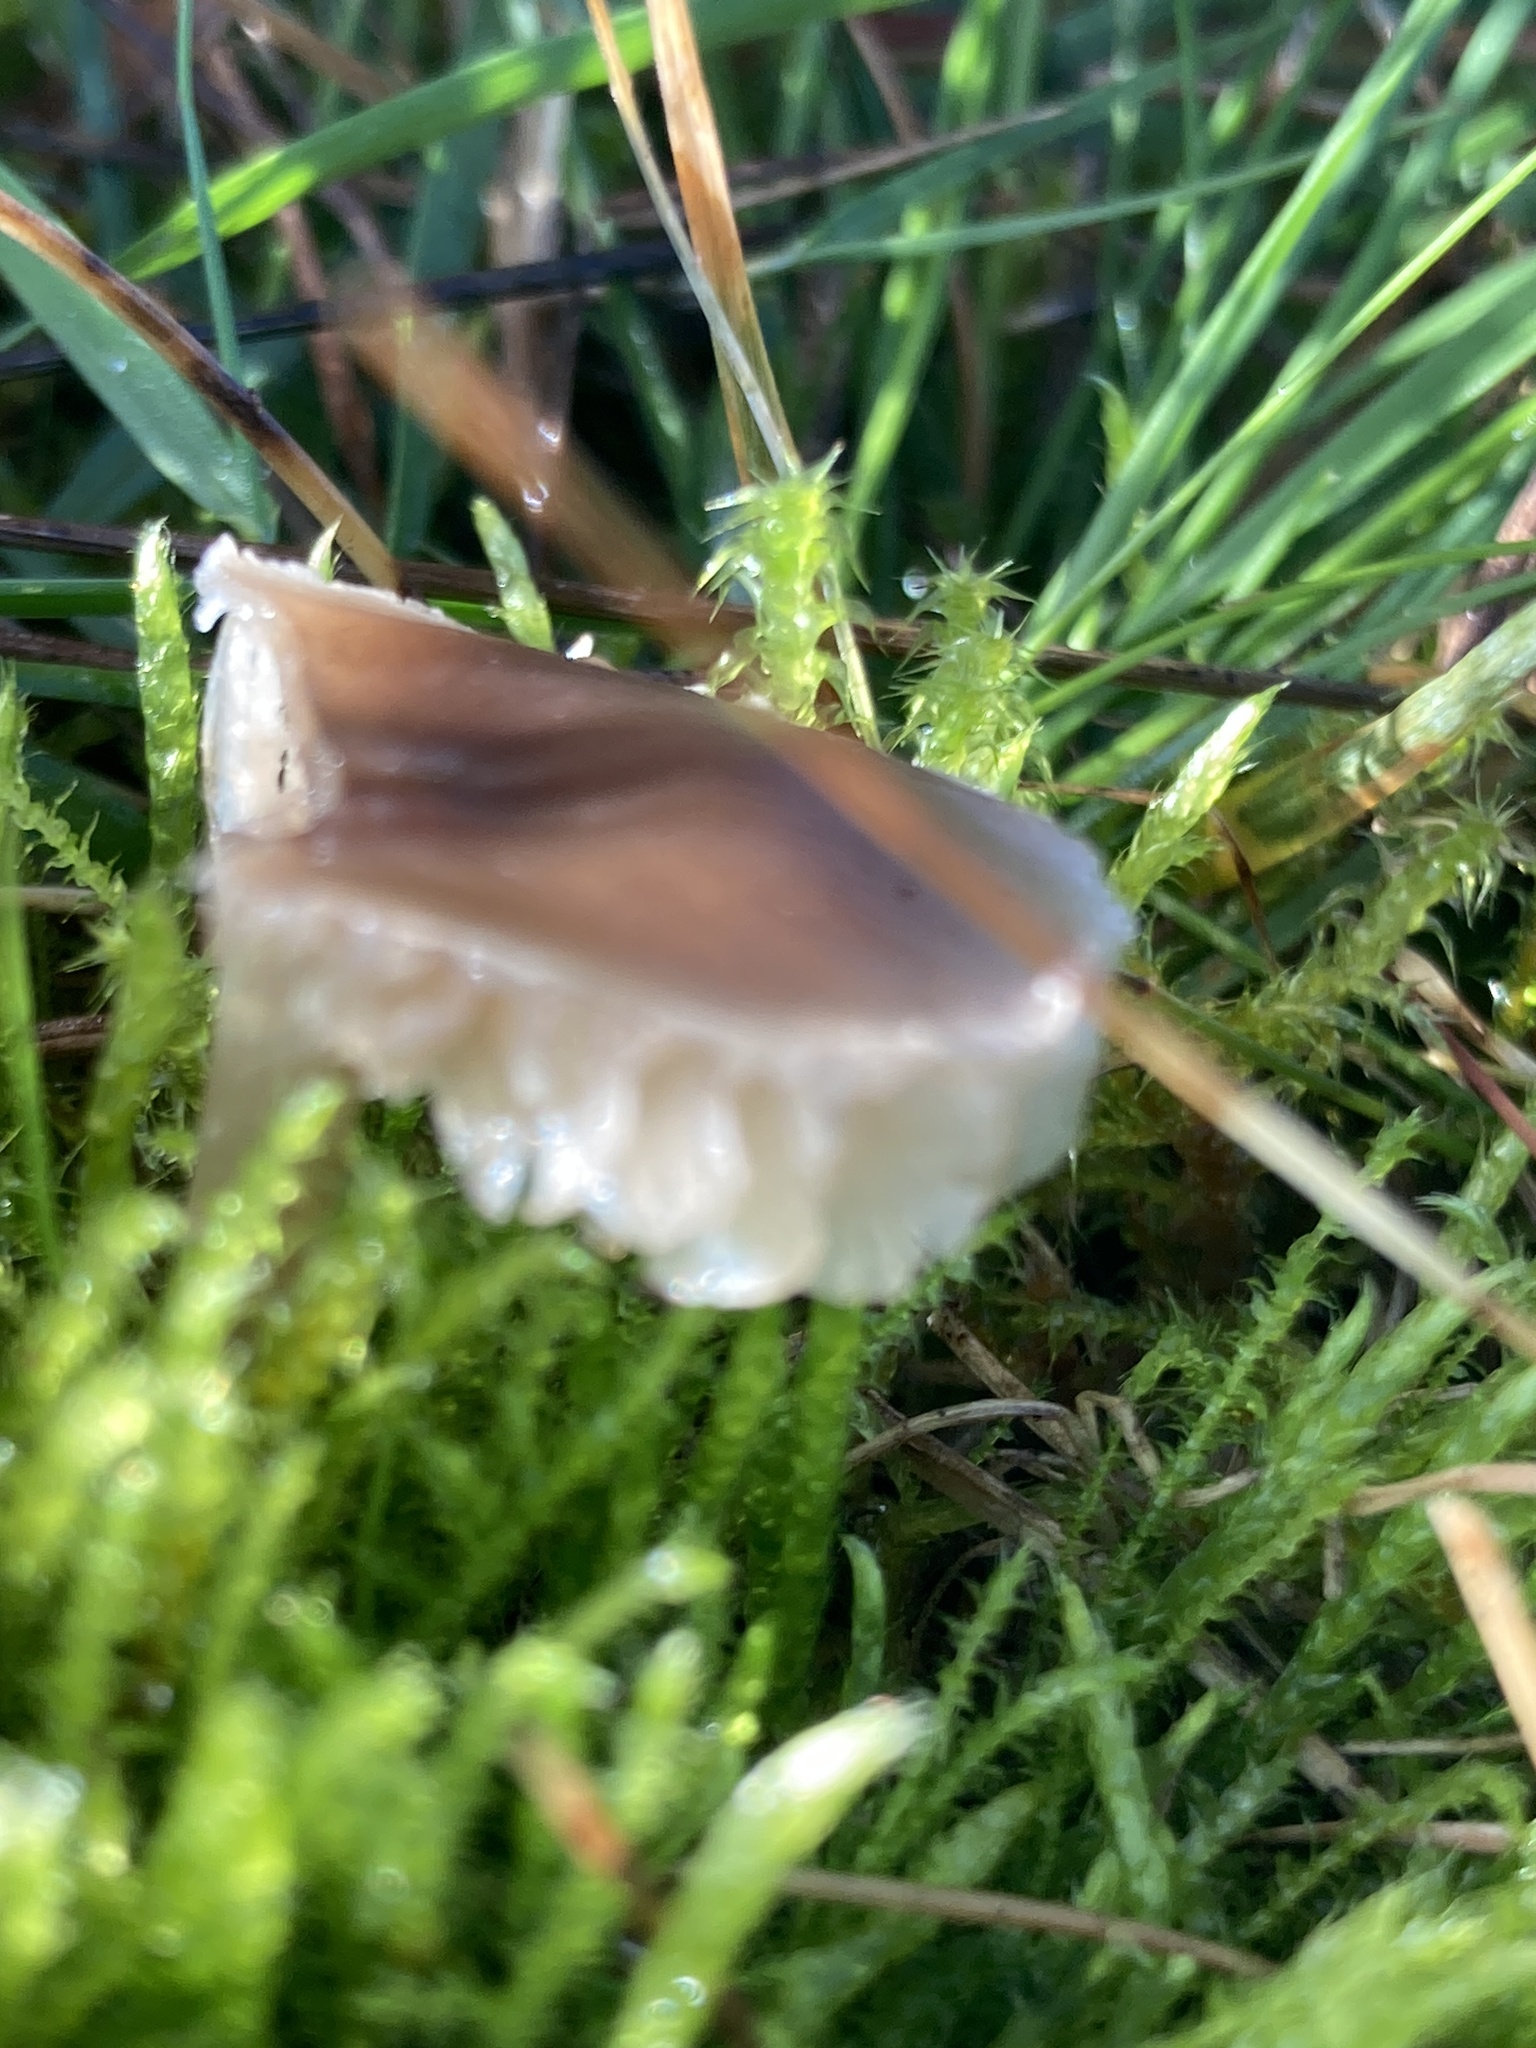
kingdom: Fungi
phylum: Basidiomycota
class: Agaricomycetes
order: Agaricales
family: Hygrophoraceae
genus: Gliophorus
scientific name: Gliophorus irrigatus
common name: Slimy waxcap
